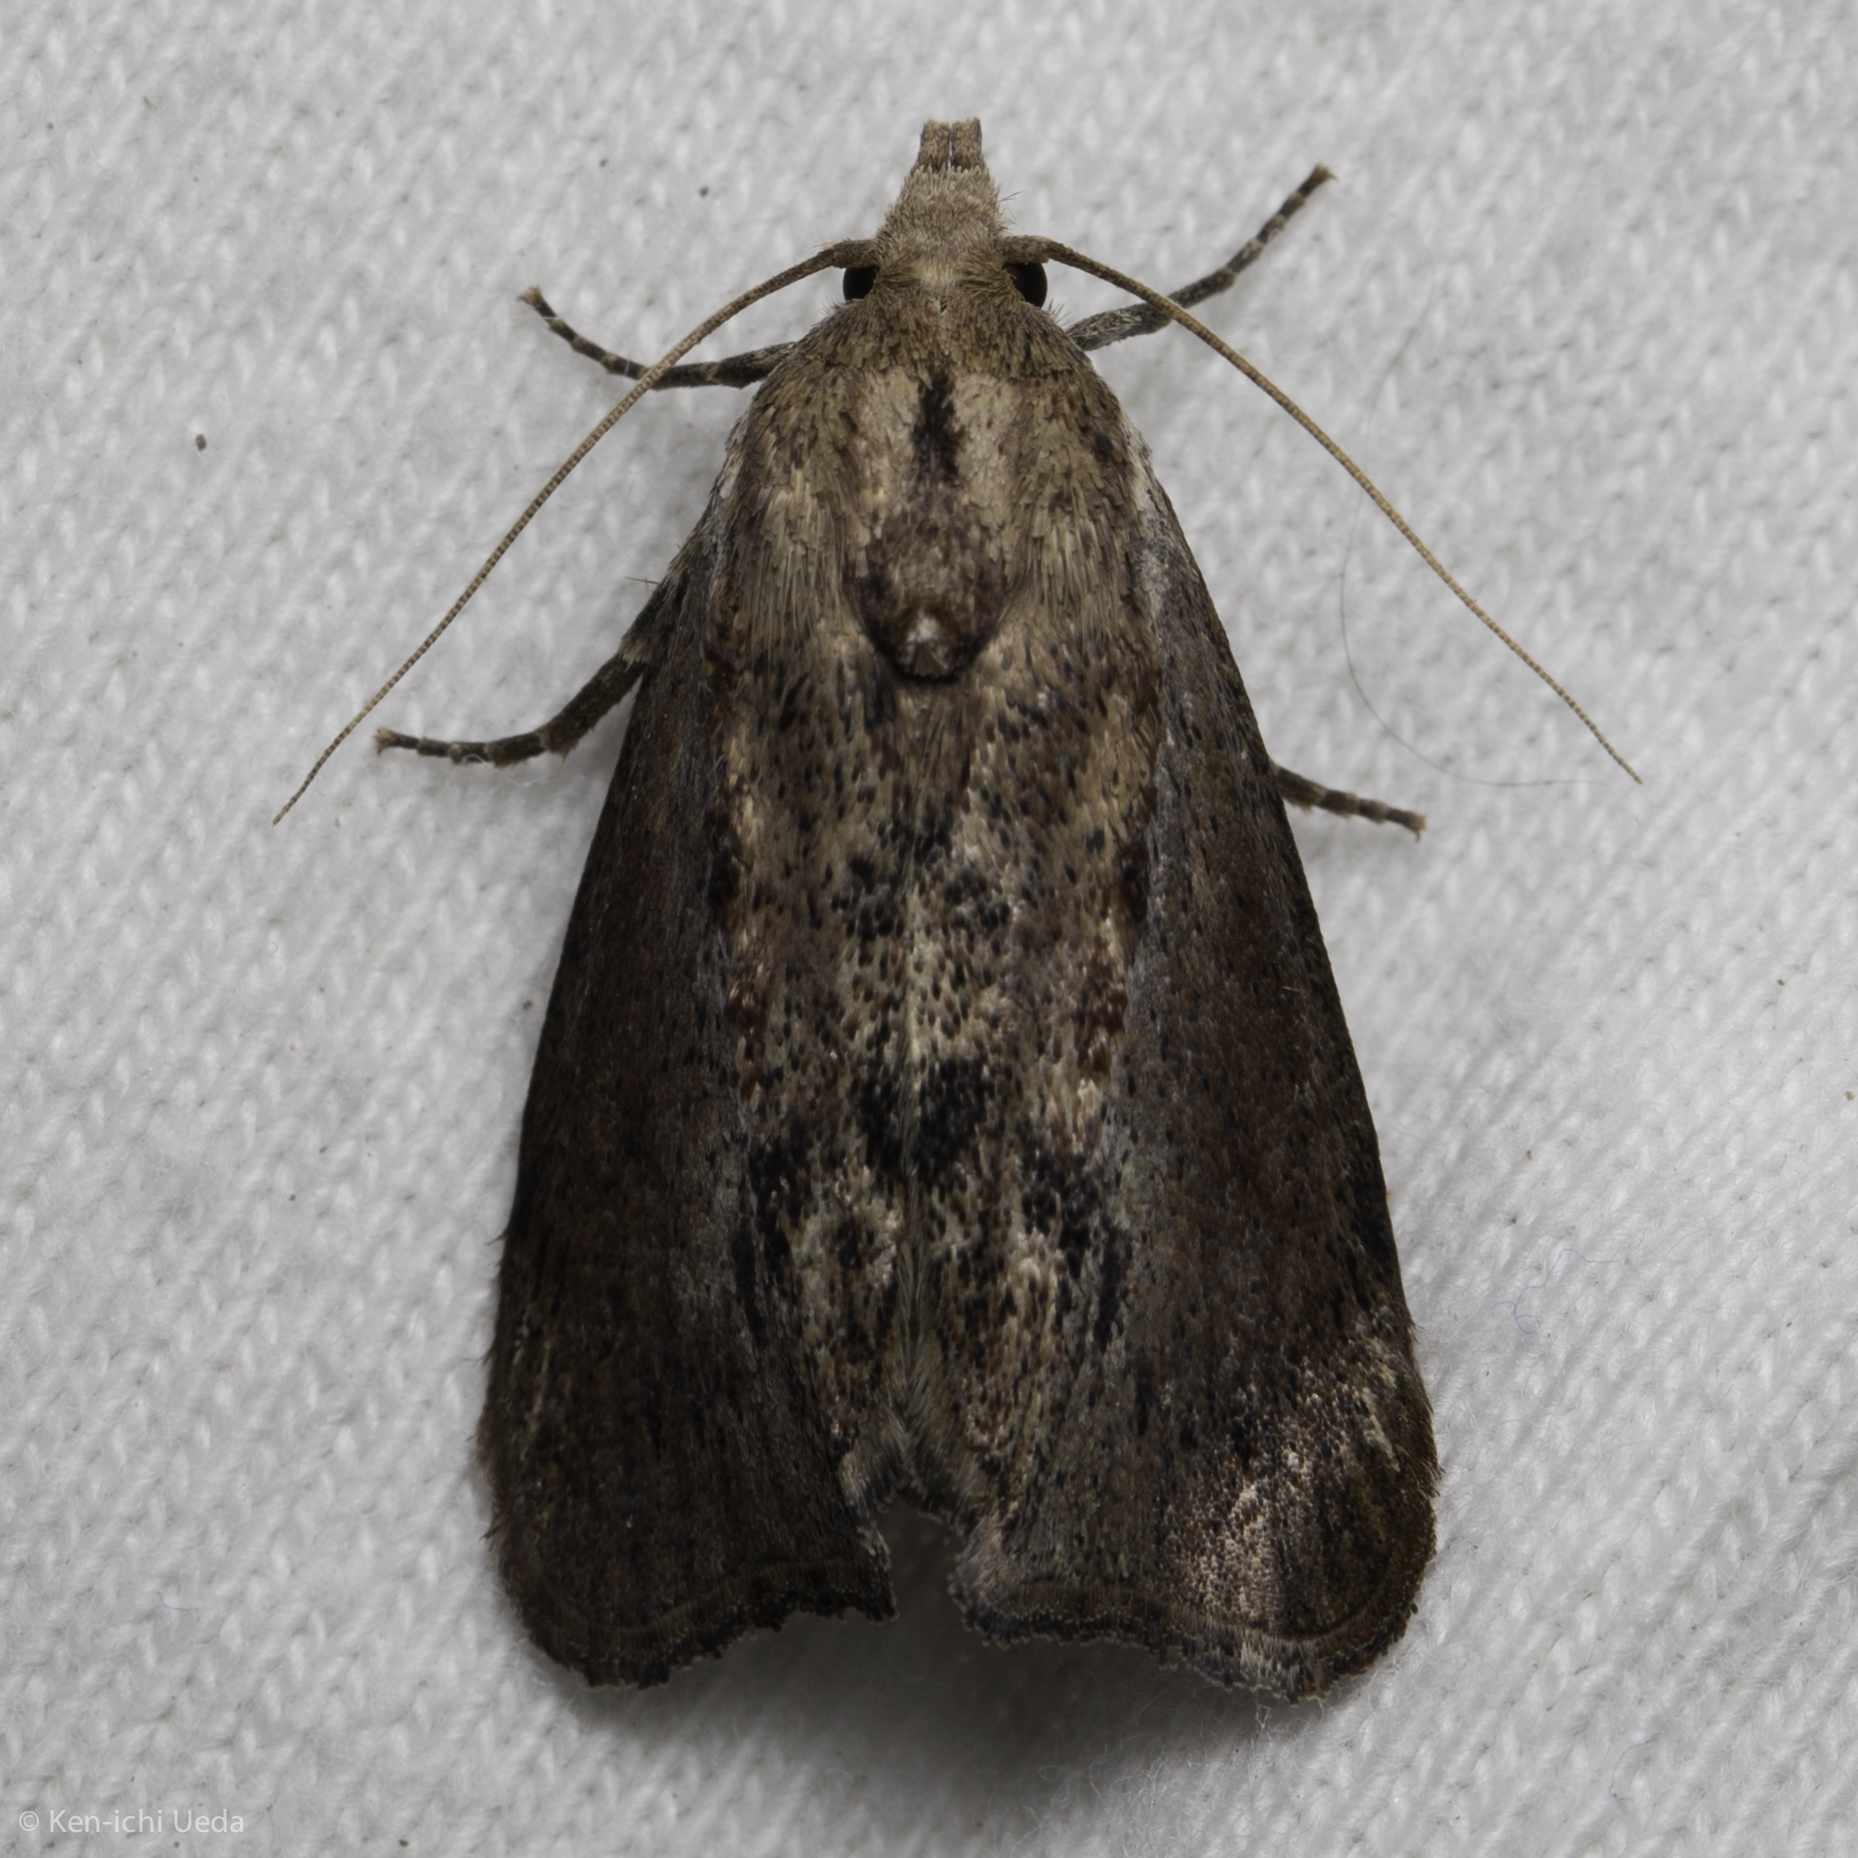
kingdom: Animalia
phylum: Arthropoda
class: Insecta
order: Lepidoptera
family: Pyralidae
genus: Galleria
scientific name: Galleria mellonella
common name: Greater wax moth
